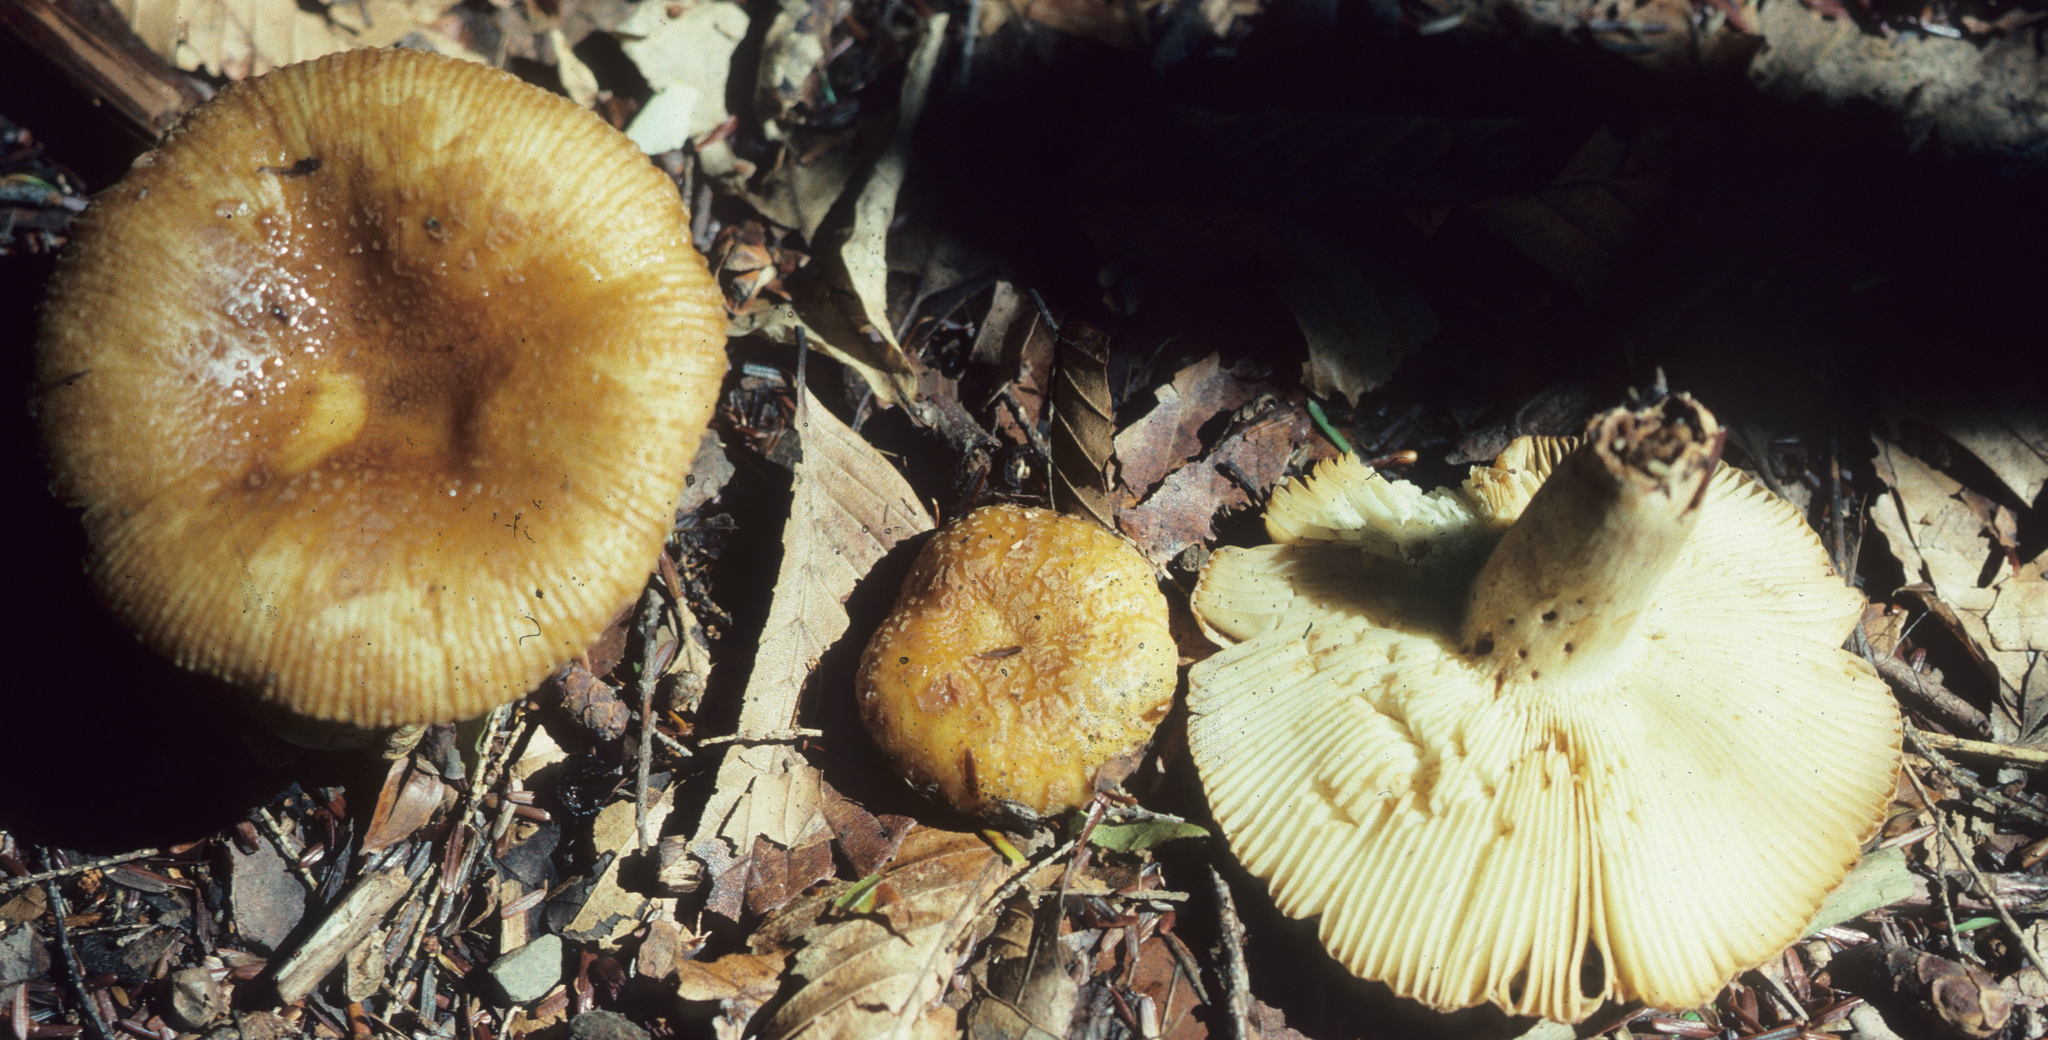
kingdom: Fungi
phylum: Basidiomycota
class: Agaricomycetes
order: Russulales
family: Russulaceae
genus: Russula
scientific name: Russula granulata
